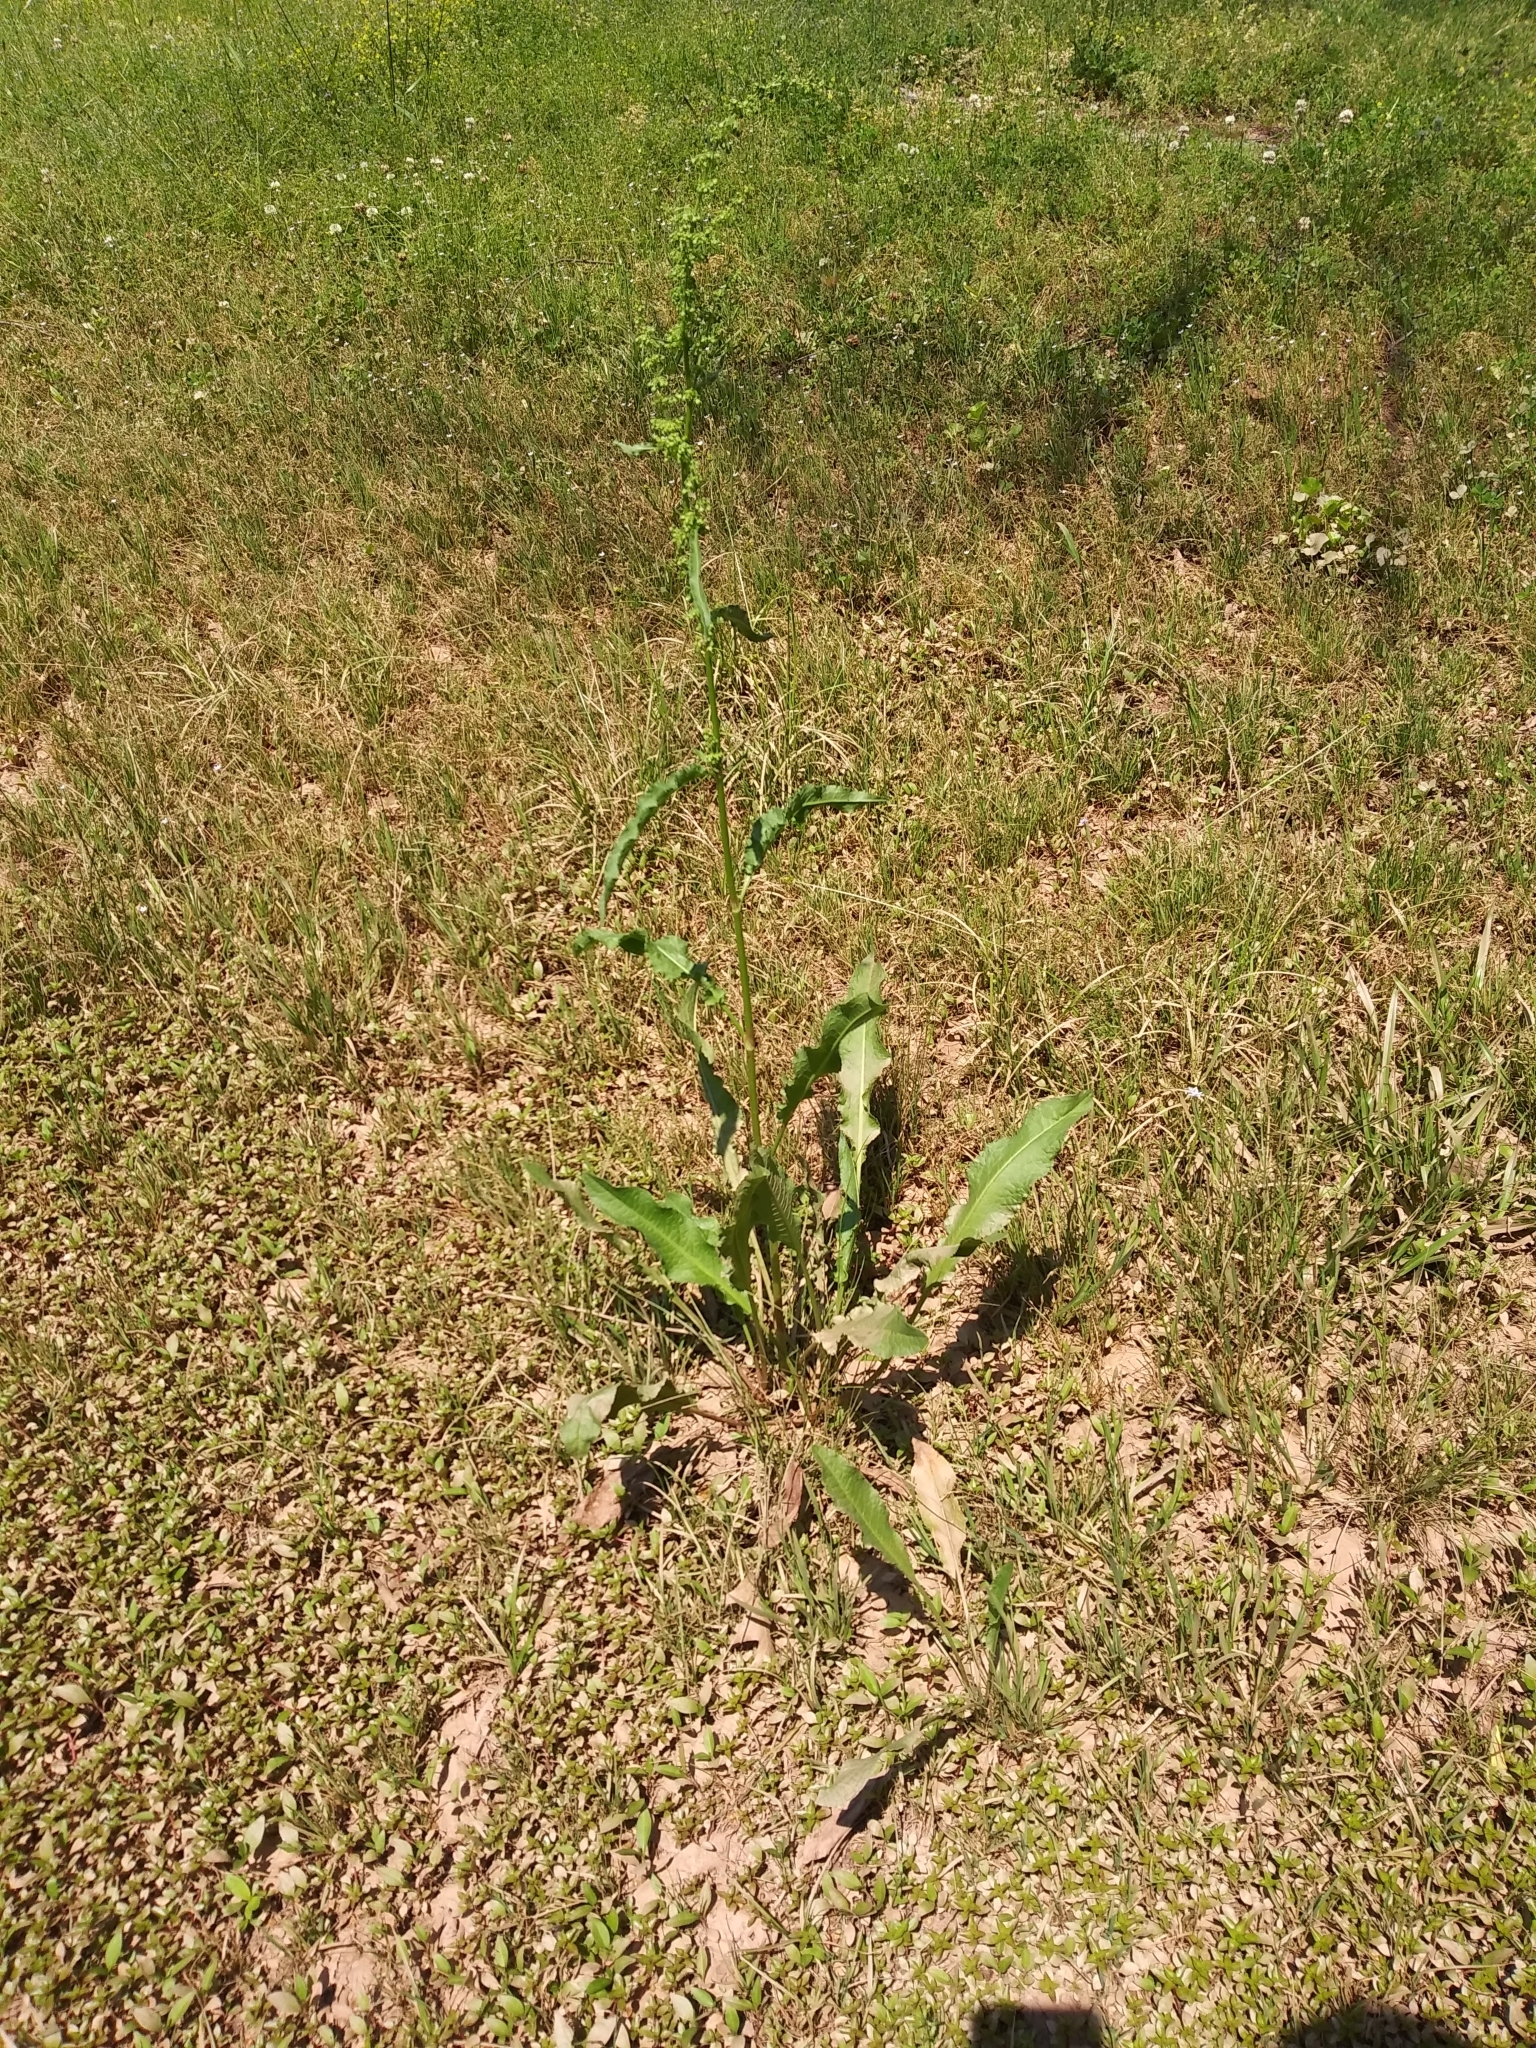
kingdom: Plantae
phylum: Tracheophyta
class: Magnoliopsida
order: Caryophyllales
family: Polygonaceae
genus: Rumex
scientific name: Rumex crispus
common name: Curled dock
